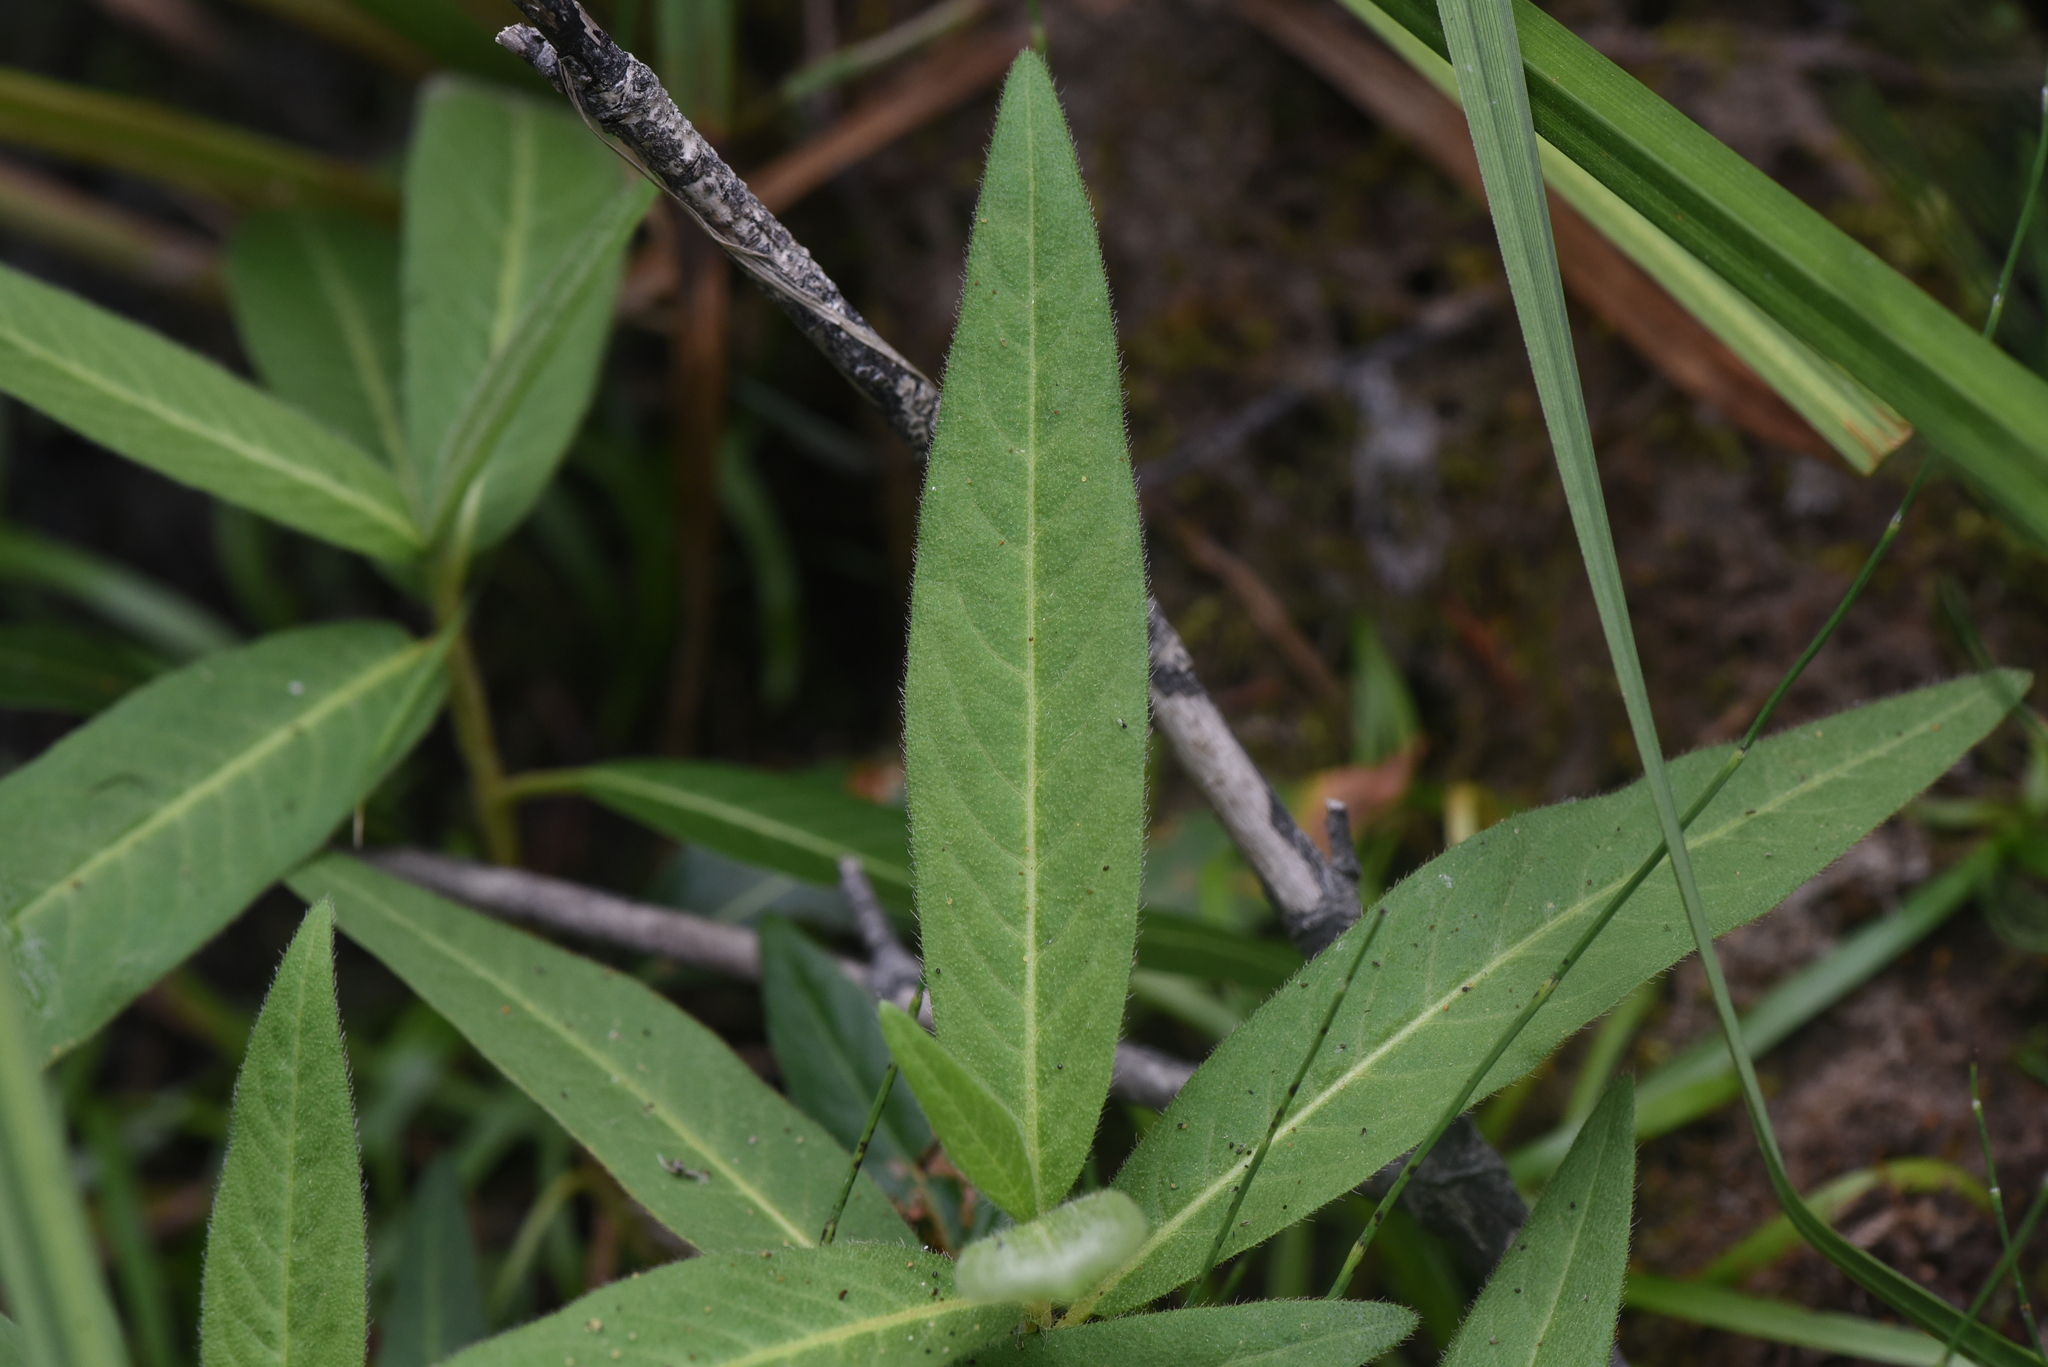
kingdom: Plantae
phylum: Tracheophyta
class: Magnoliopsida
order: Caryophyllales
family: Polygonaceae
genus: Persicaria
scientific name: Persicaria amphibia
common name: Amphibious bistort
